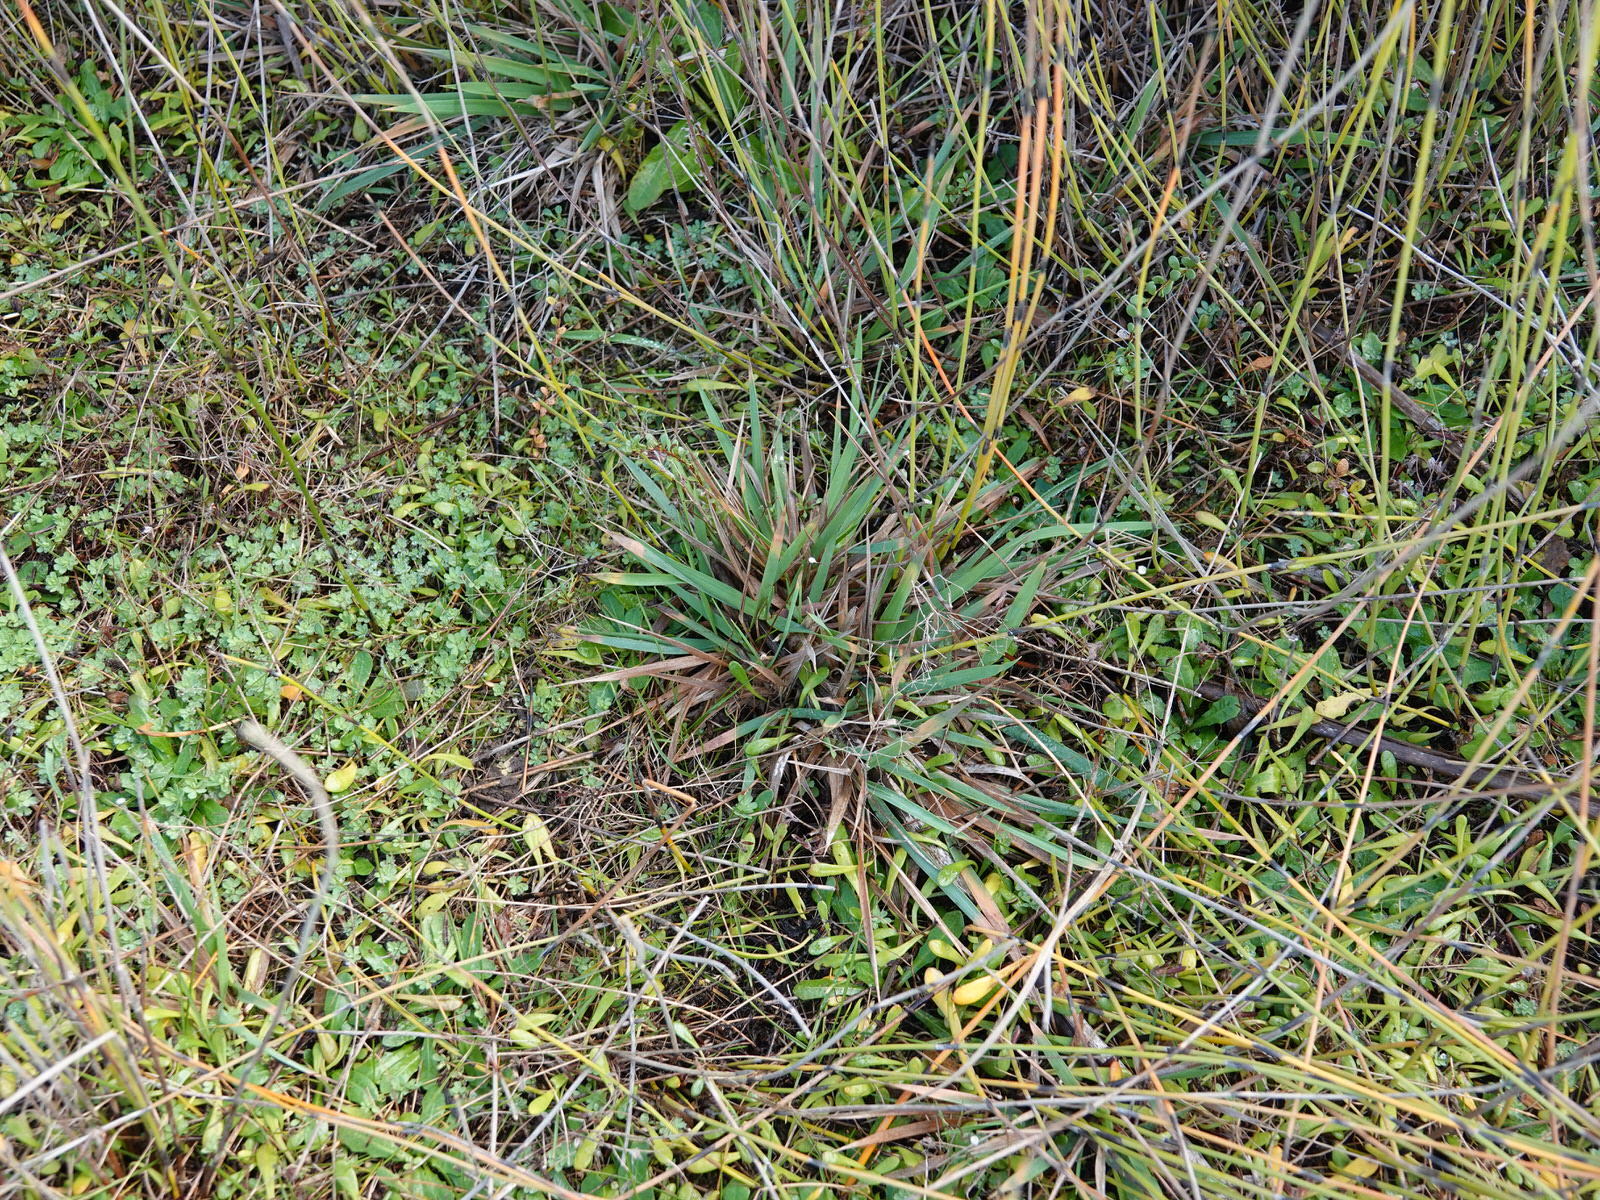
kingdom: Plantae
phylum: Tracheophyta
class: Liliopsida
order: Poales
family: Poaceae
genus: Lachnagrostis
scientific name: Lachnagrostis billardierei
